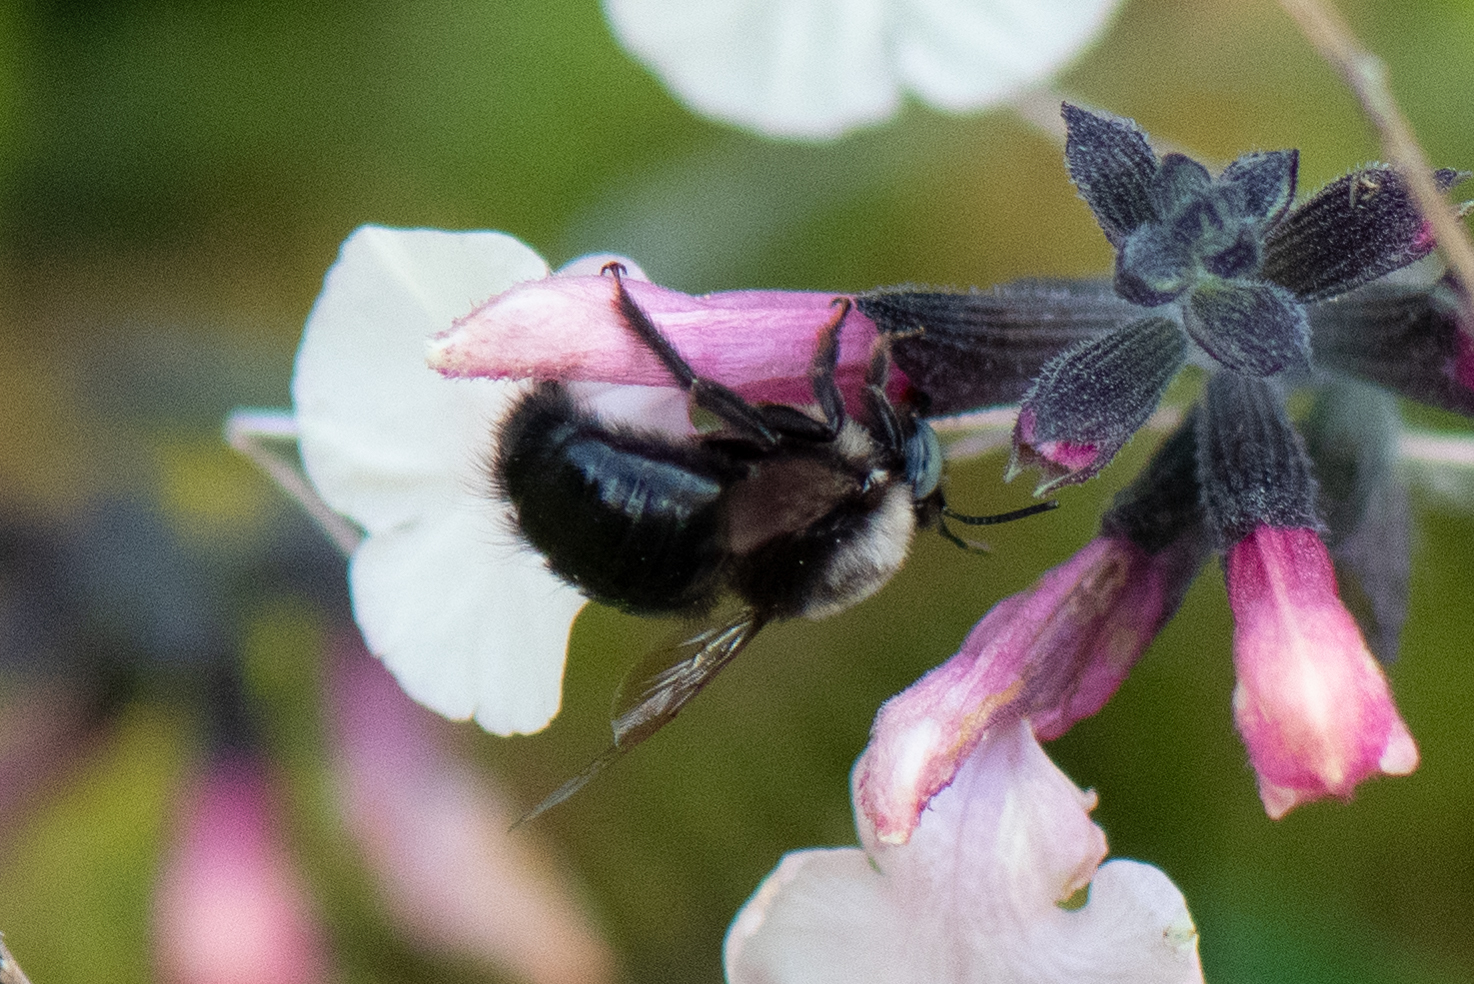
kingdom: Animalia
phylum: Arthropoda
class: Insecta
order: Hymenoptera
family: Apidae
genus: Xylocopa
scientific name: Xylocopa tabaniformis
